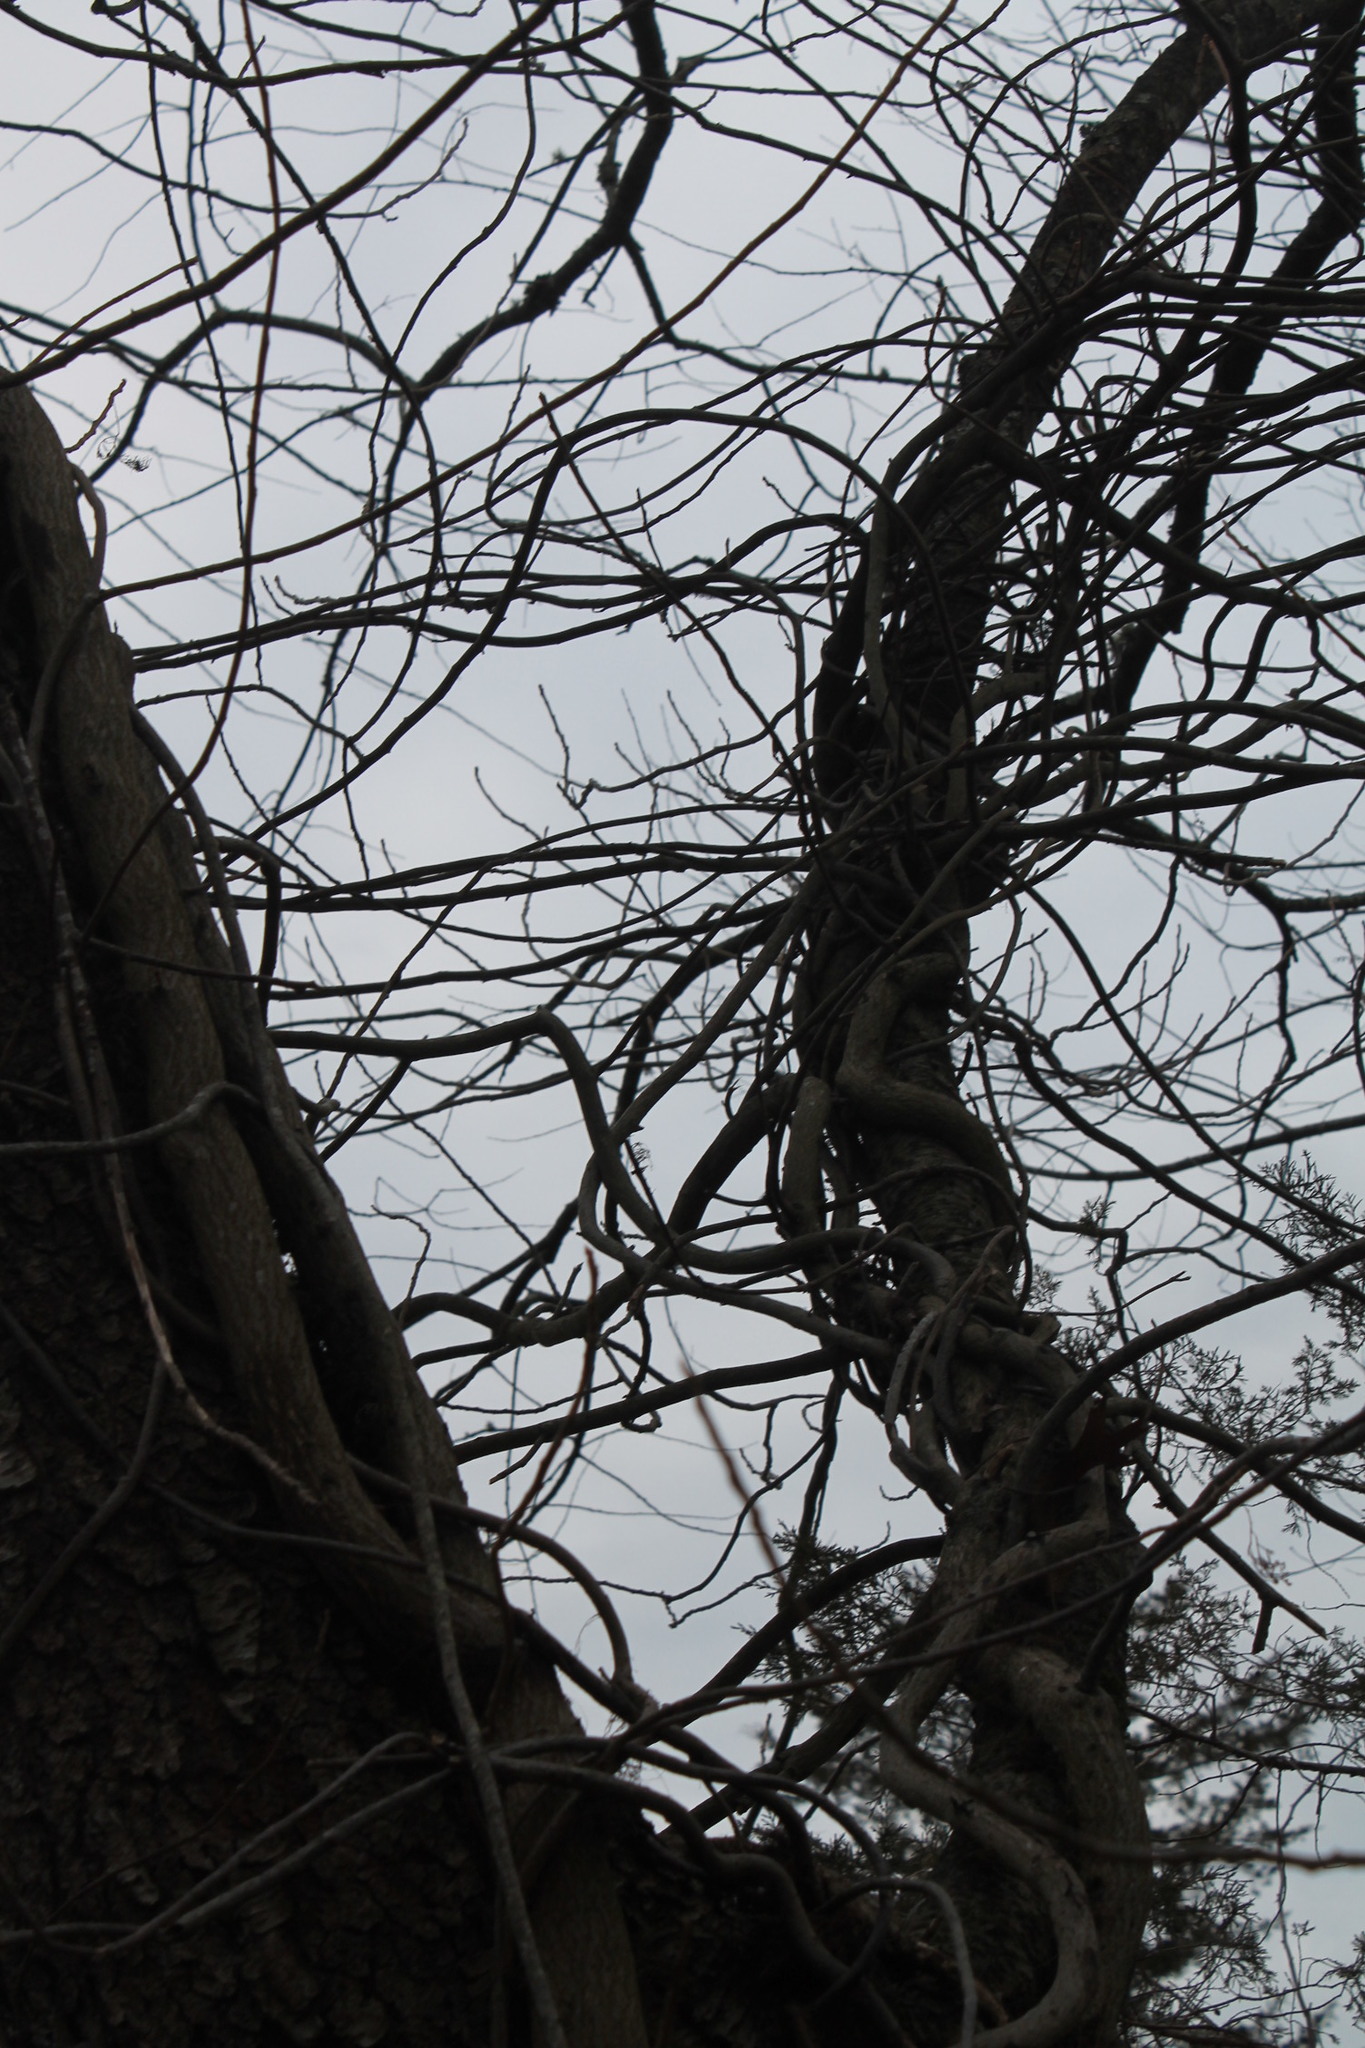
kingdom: Plantae
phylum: Tracheophyta
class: Magnoliopsida
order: Sapindales
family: Anacardiaceae
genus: Toxicodendron
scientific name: Toxicodendron radicans
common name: Poison ivy
